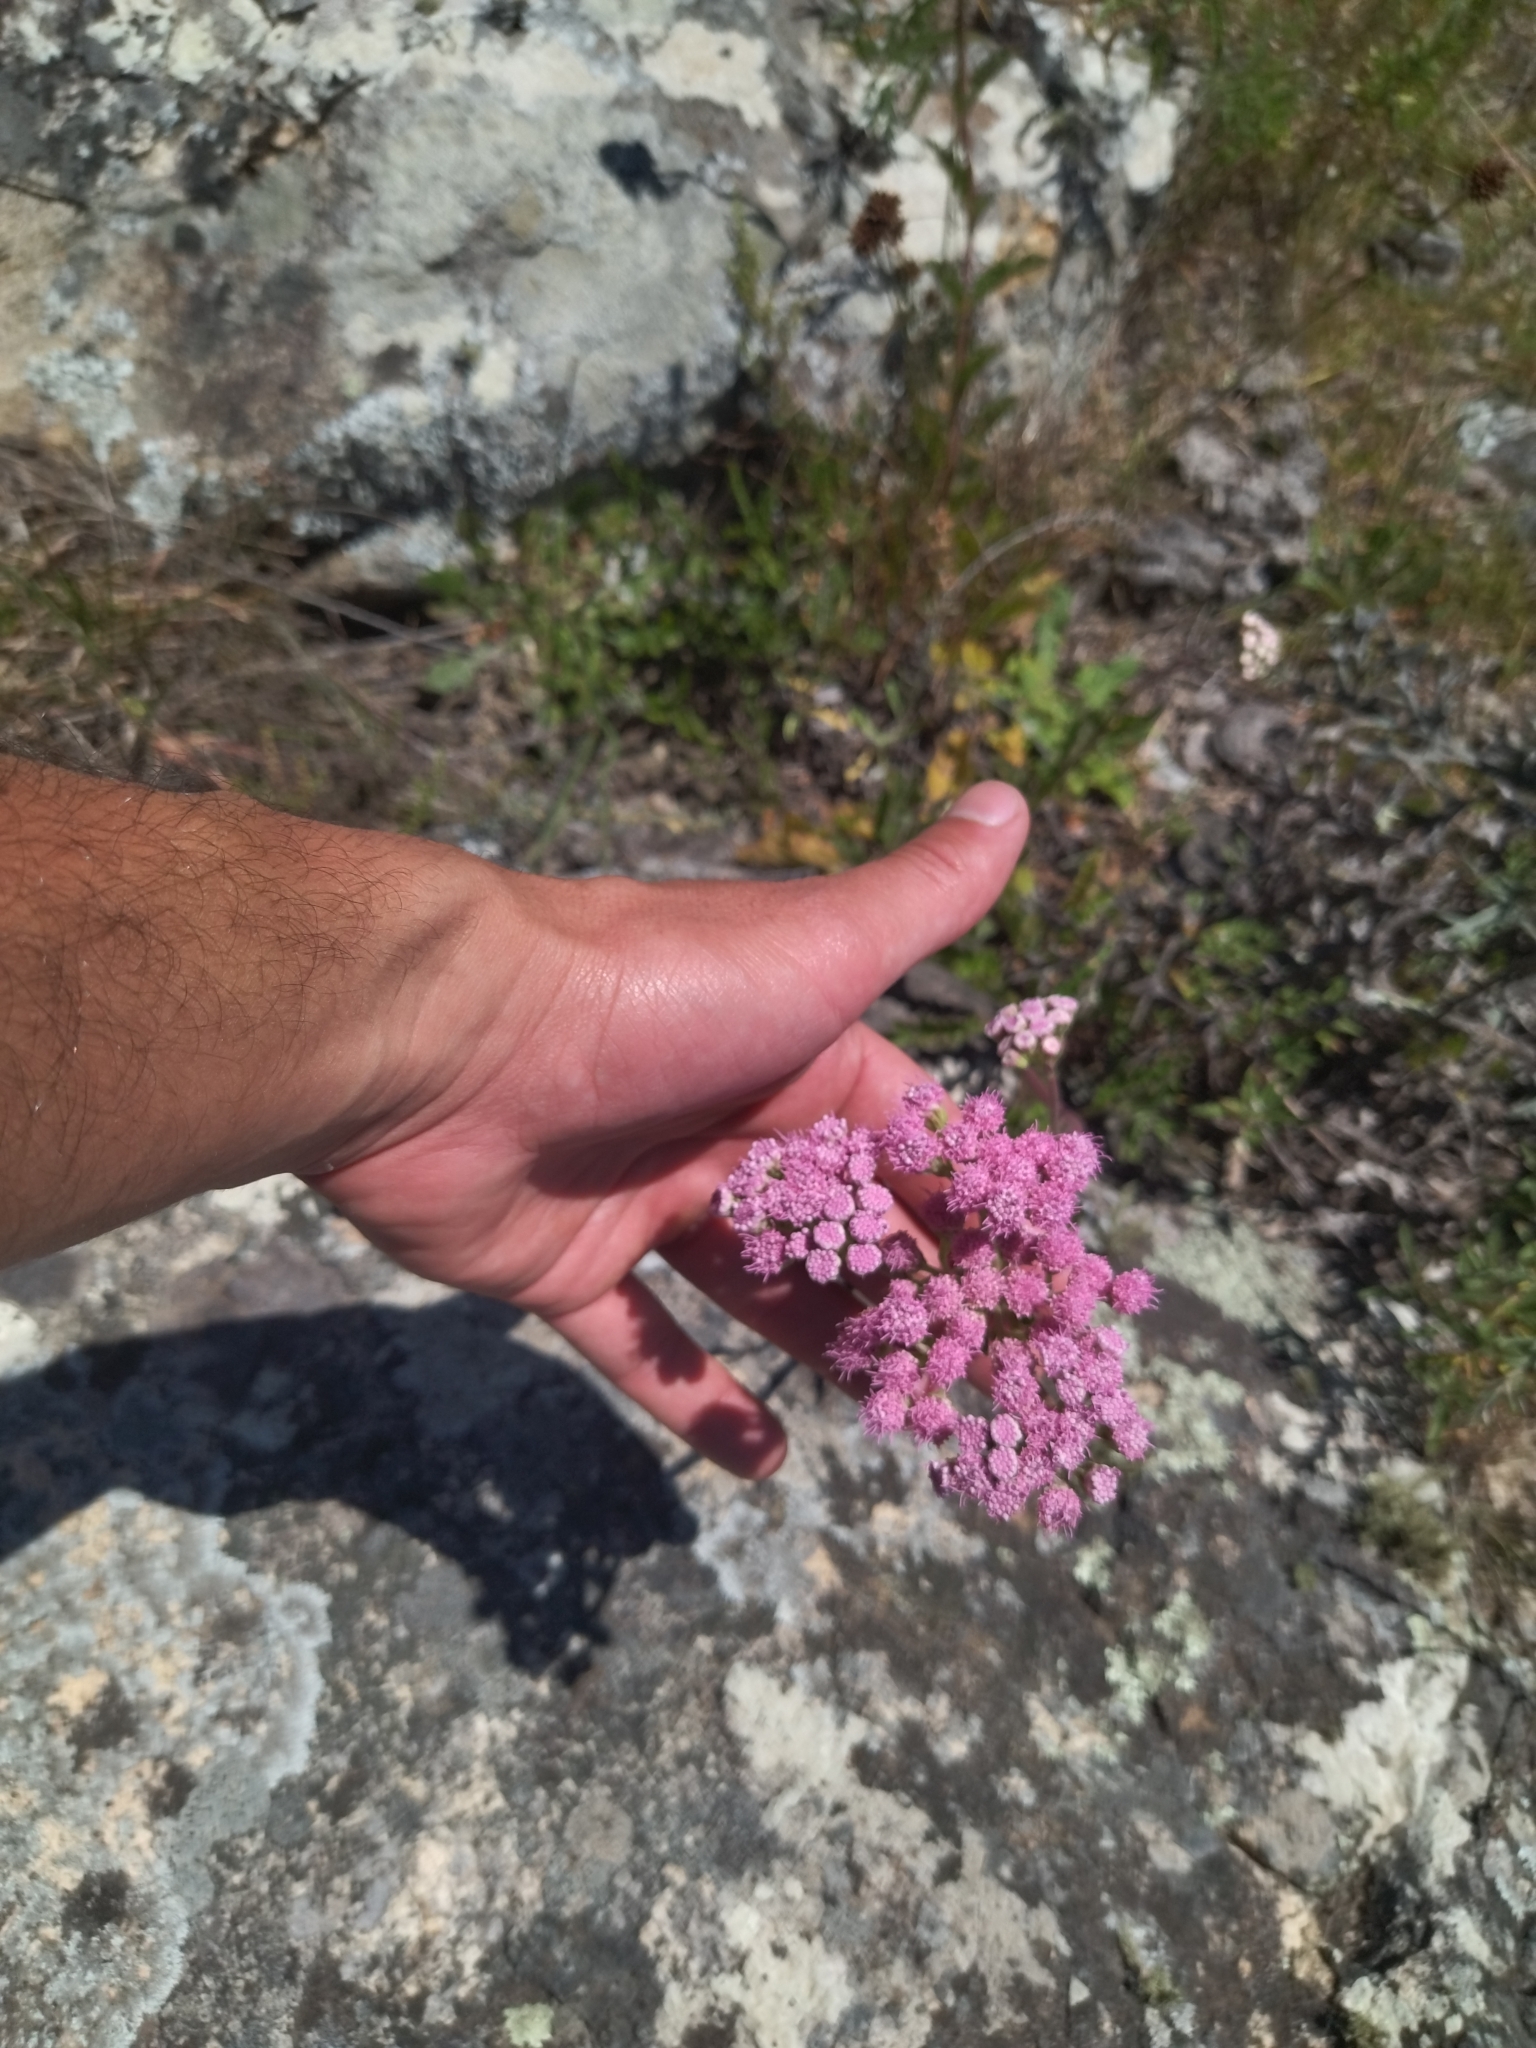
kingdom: Plantae
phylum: Tracheophyta
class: Magnoliopsida
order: Asterales
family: Asteraceae
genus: Gyptis
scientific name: Gyptis commersonii
